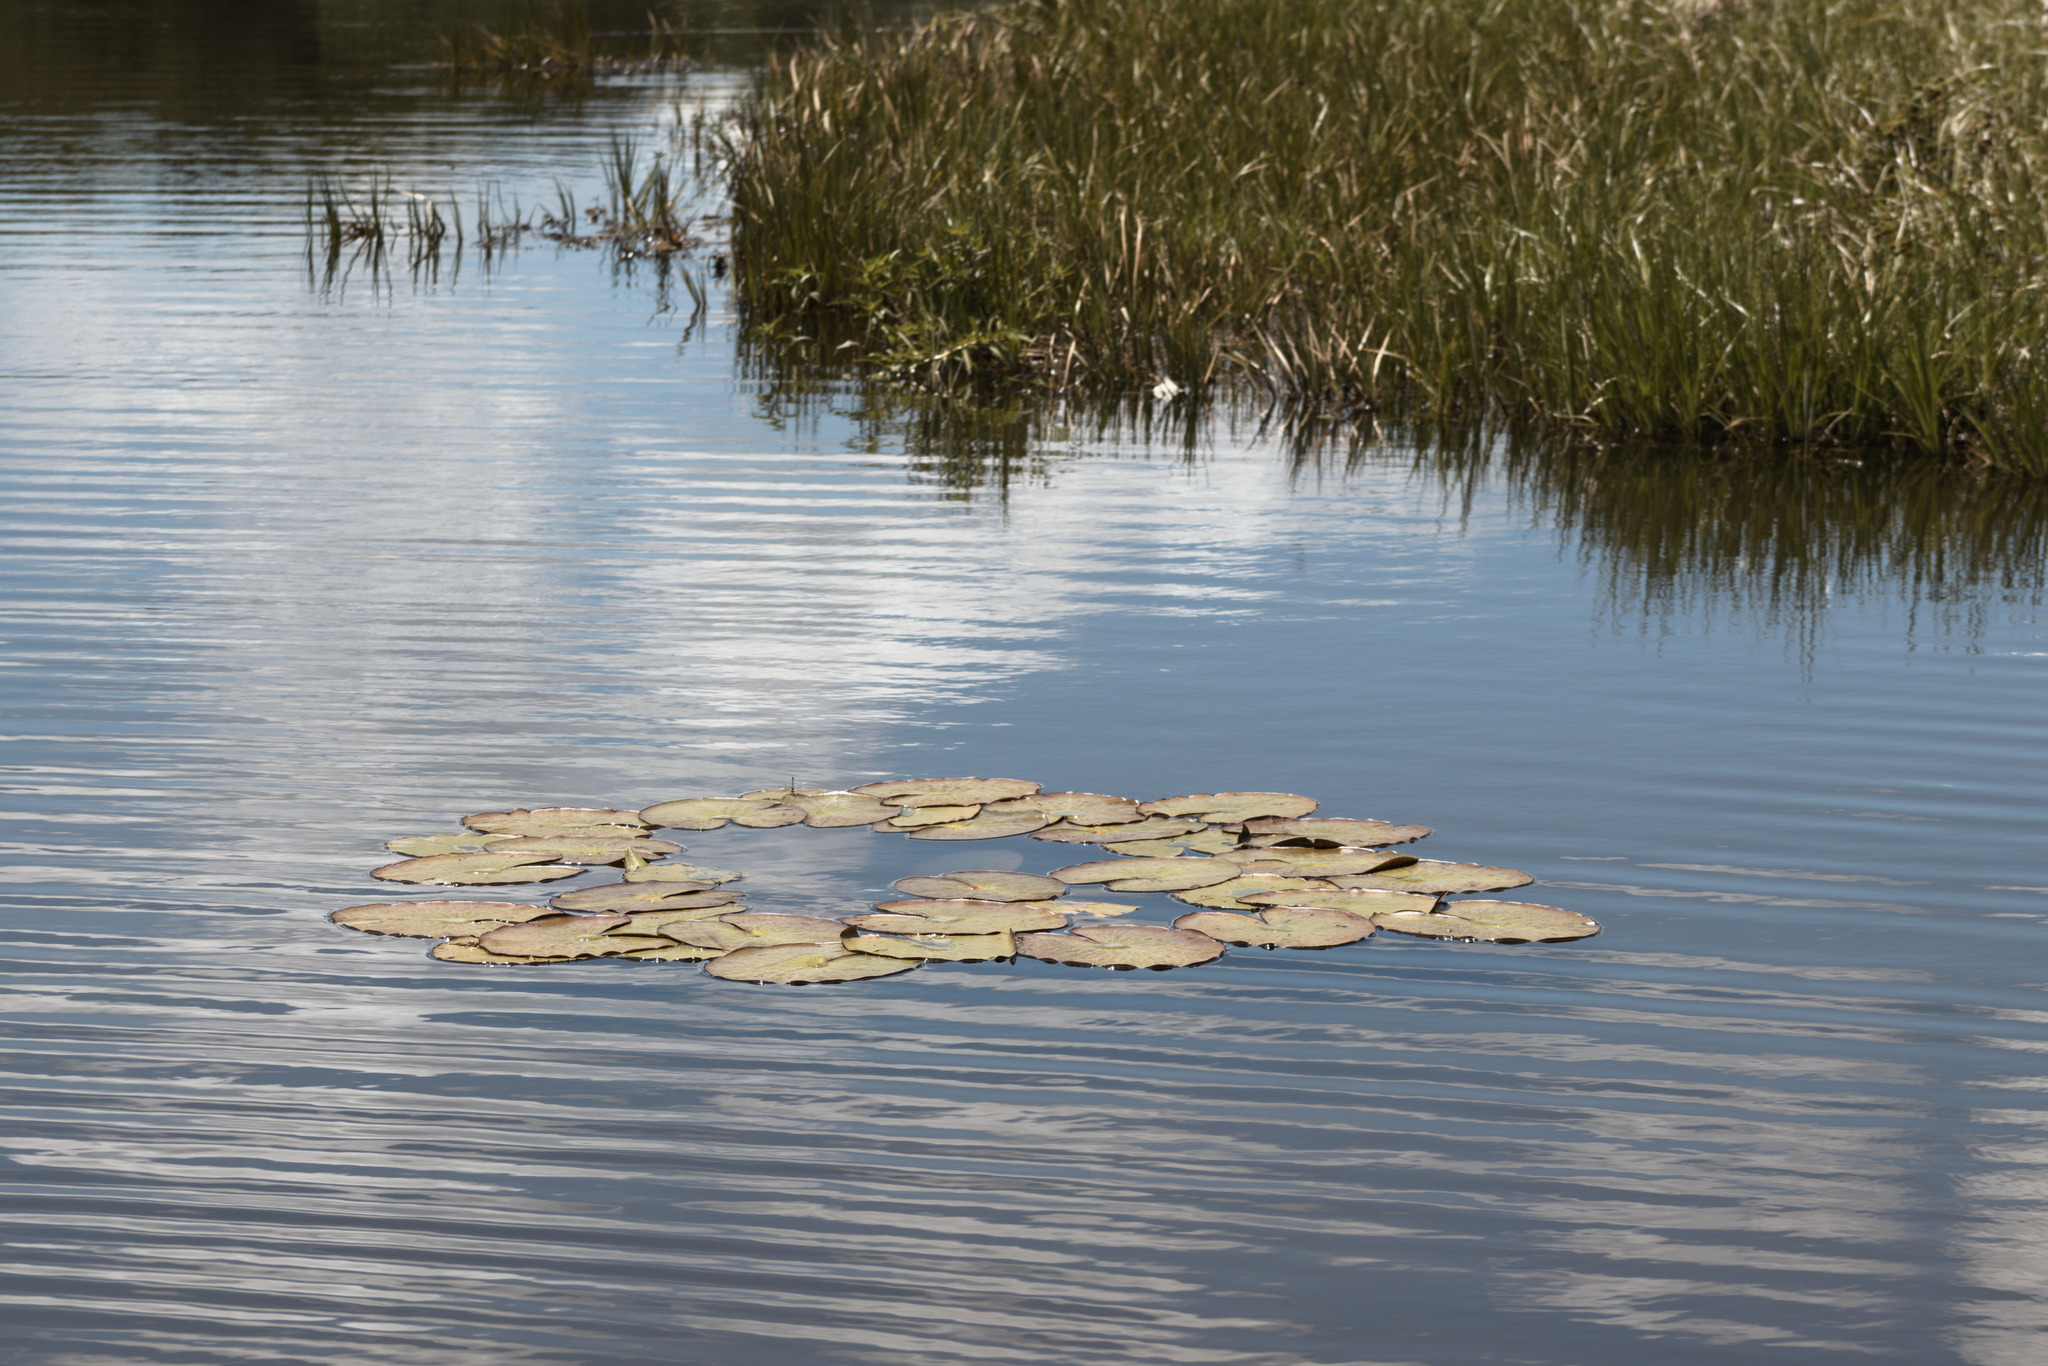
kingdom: Plantae
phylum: Tracheophyta
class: Magnoliopsida
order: Nymphaeales
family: Nymphaeaceae
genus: Nymphaea
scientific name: Nymphaea
